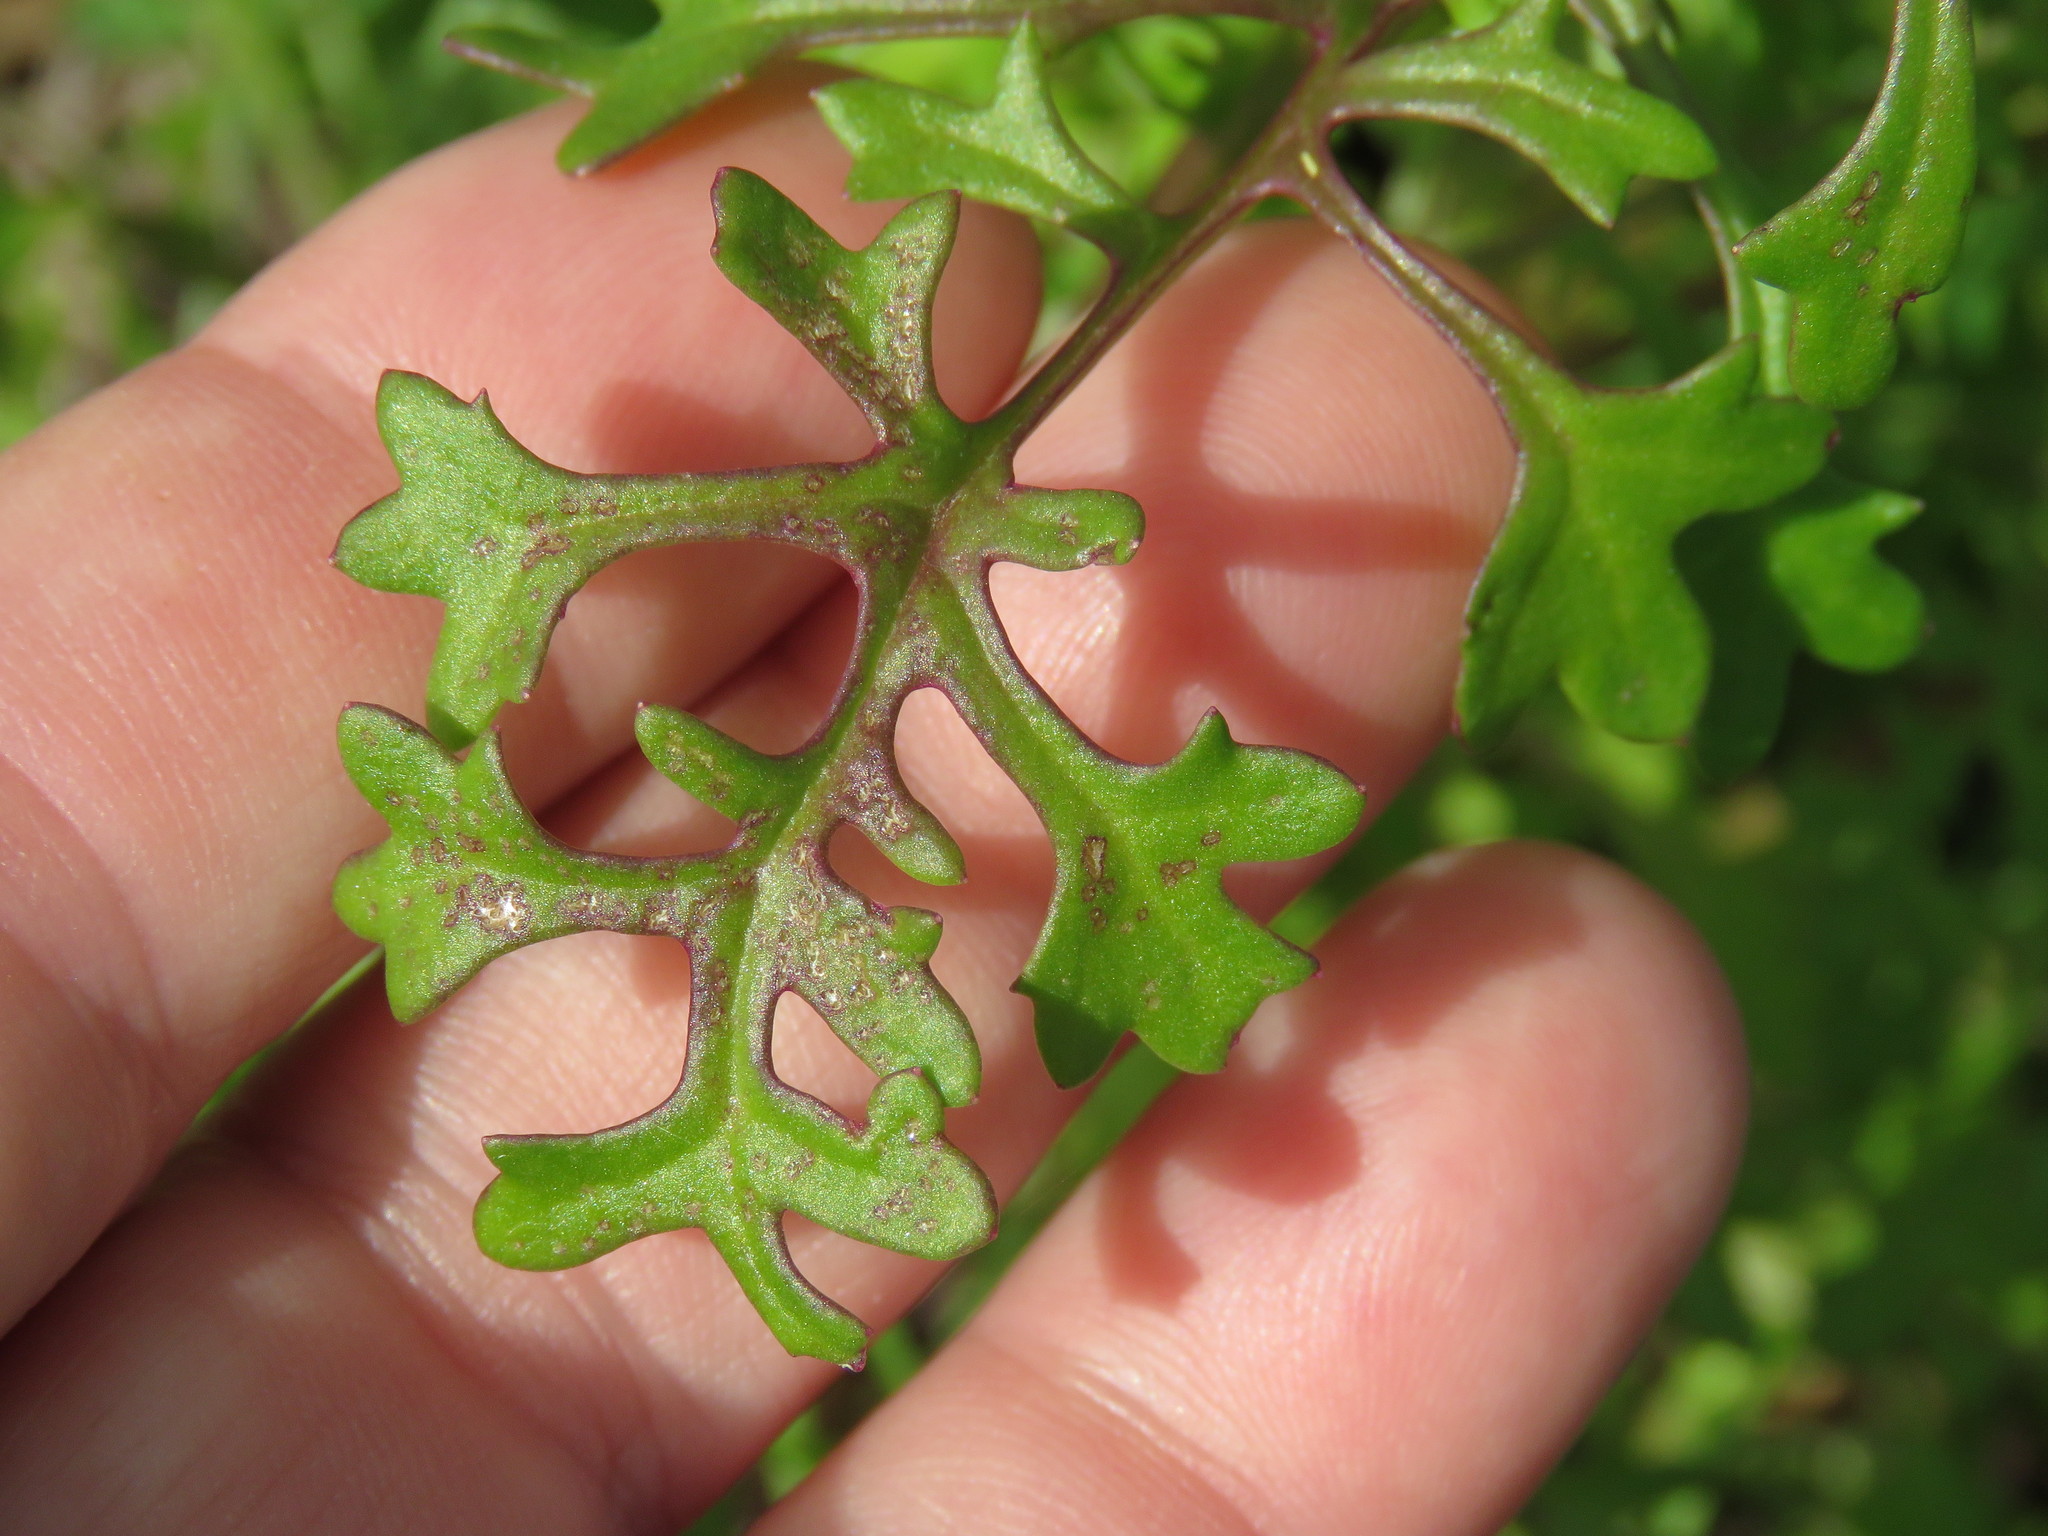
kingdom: Plantae
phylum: Tracheophyta
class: Magnoliopsida
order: Asterales
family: Asteraceae
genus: Packera
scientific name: Packera tampicana
